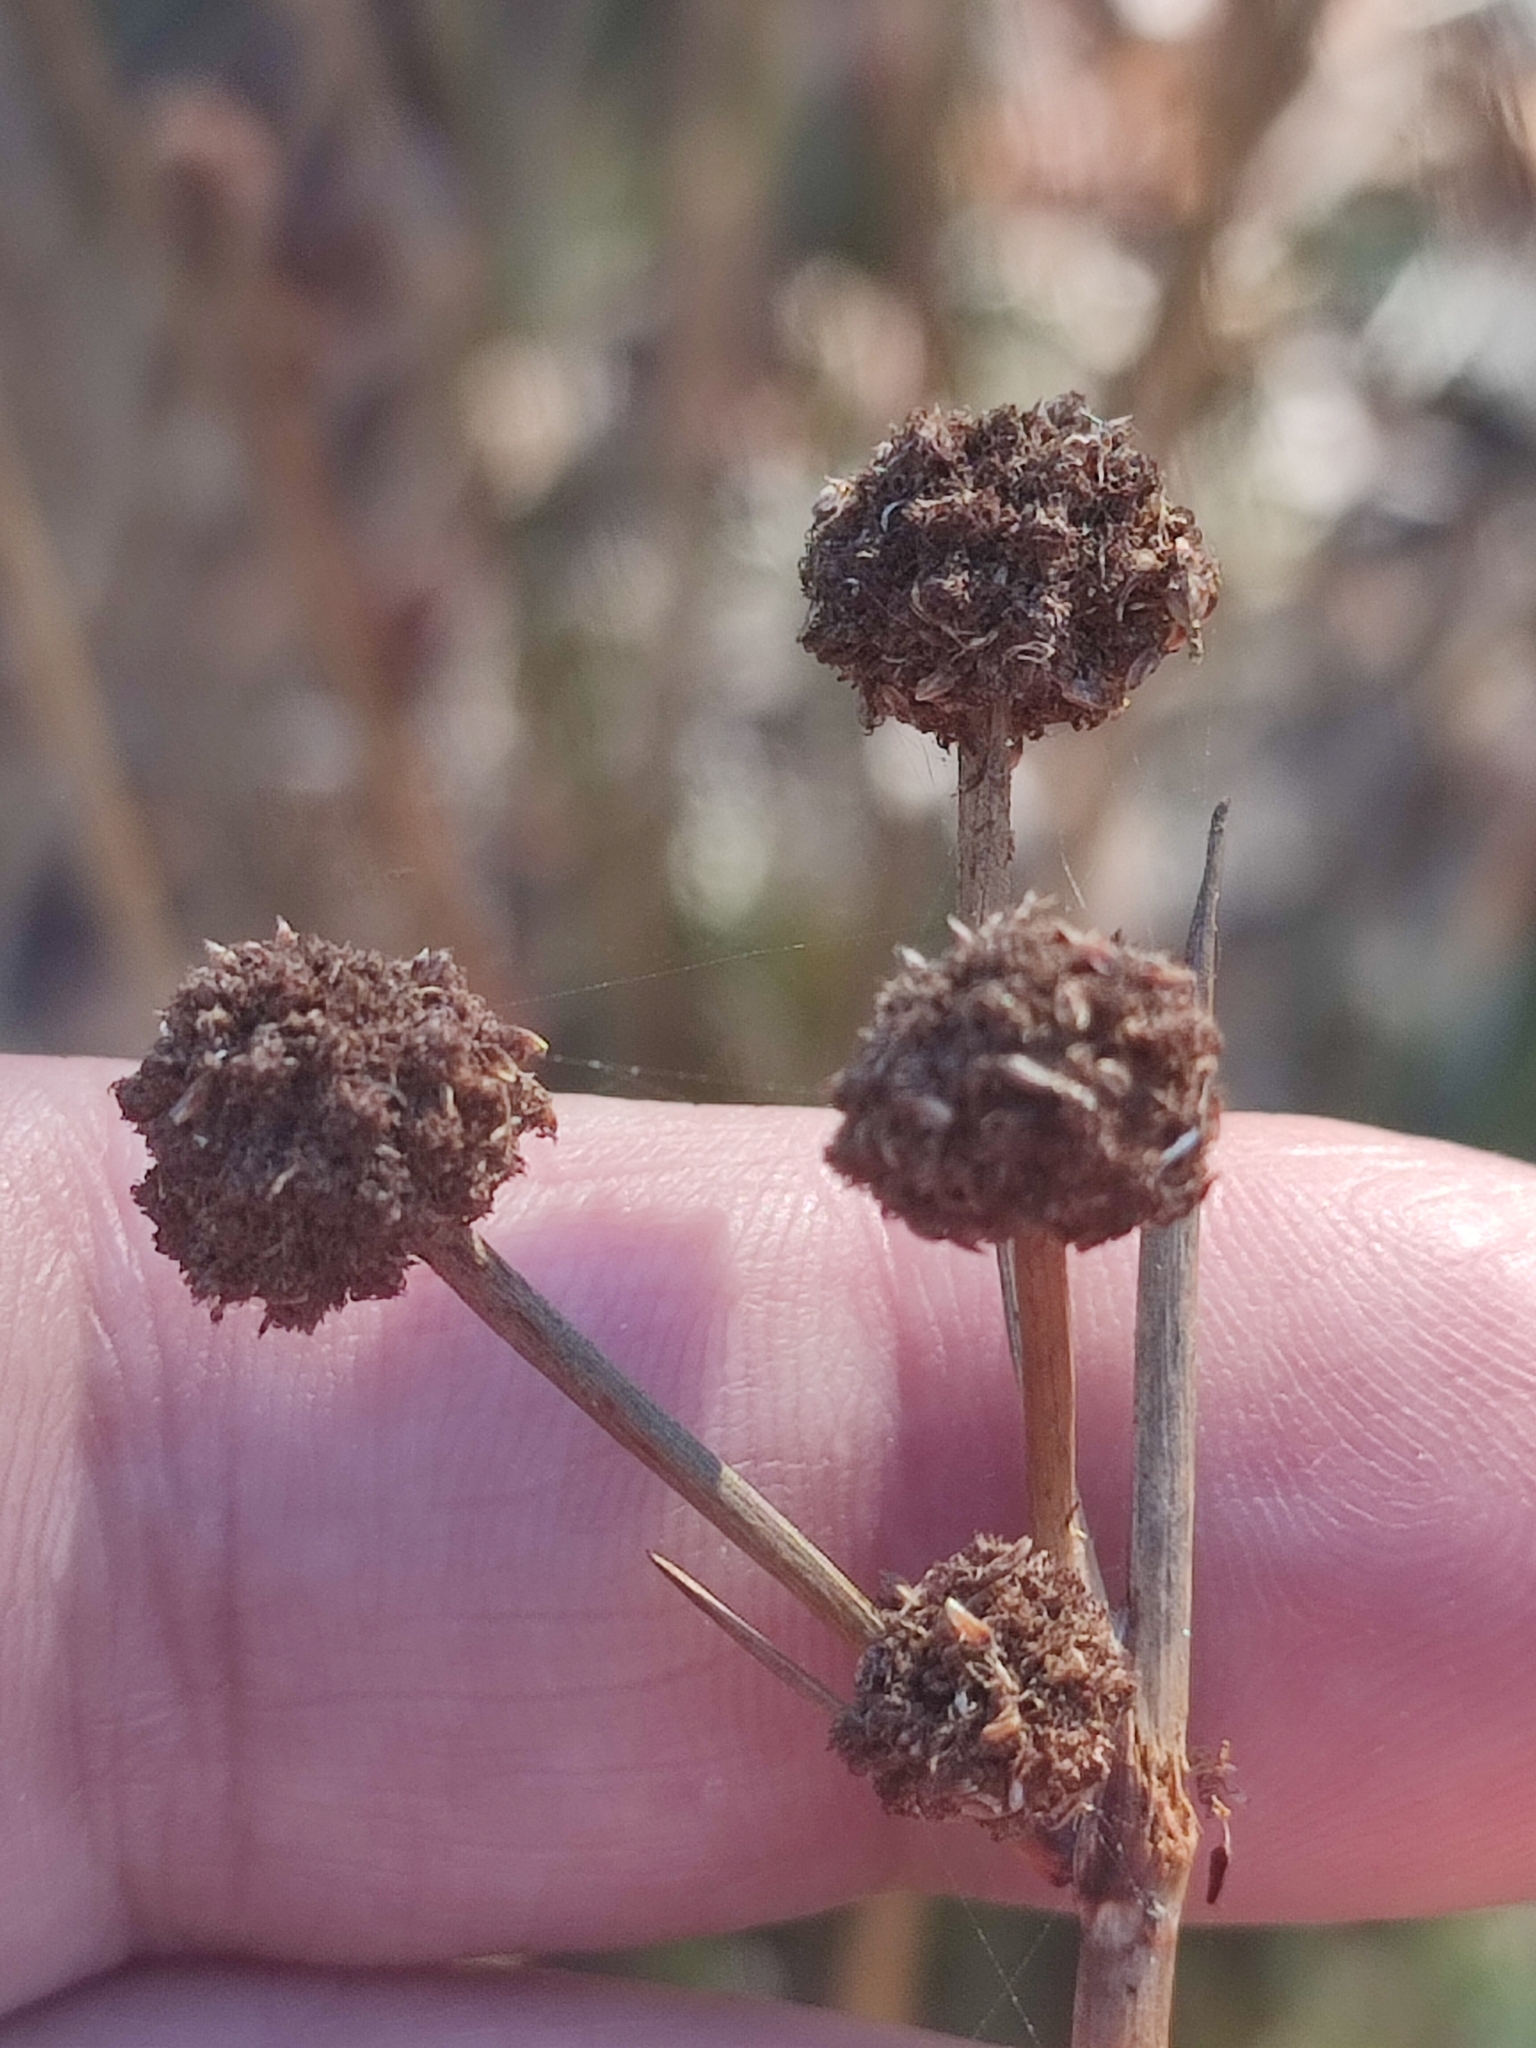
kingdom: Plantae
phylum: Tracheophyta
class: Liliopsida
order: Poales
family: Cyperaceae
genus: Scirpoides
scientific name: Scirpoides holoschoenus
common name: Round-headed club-rush
